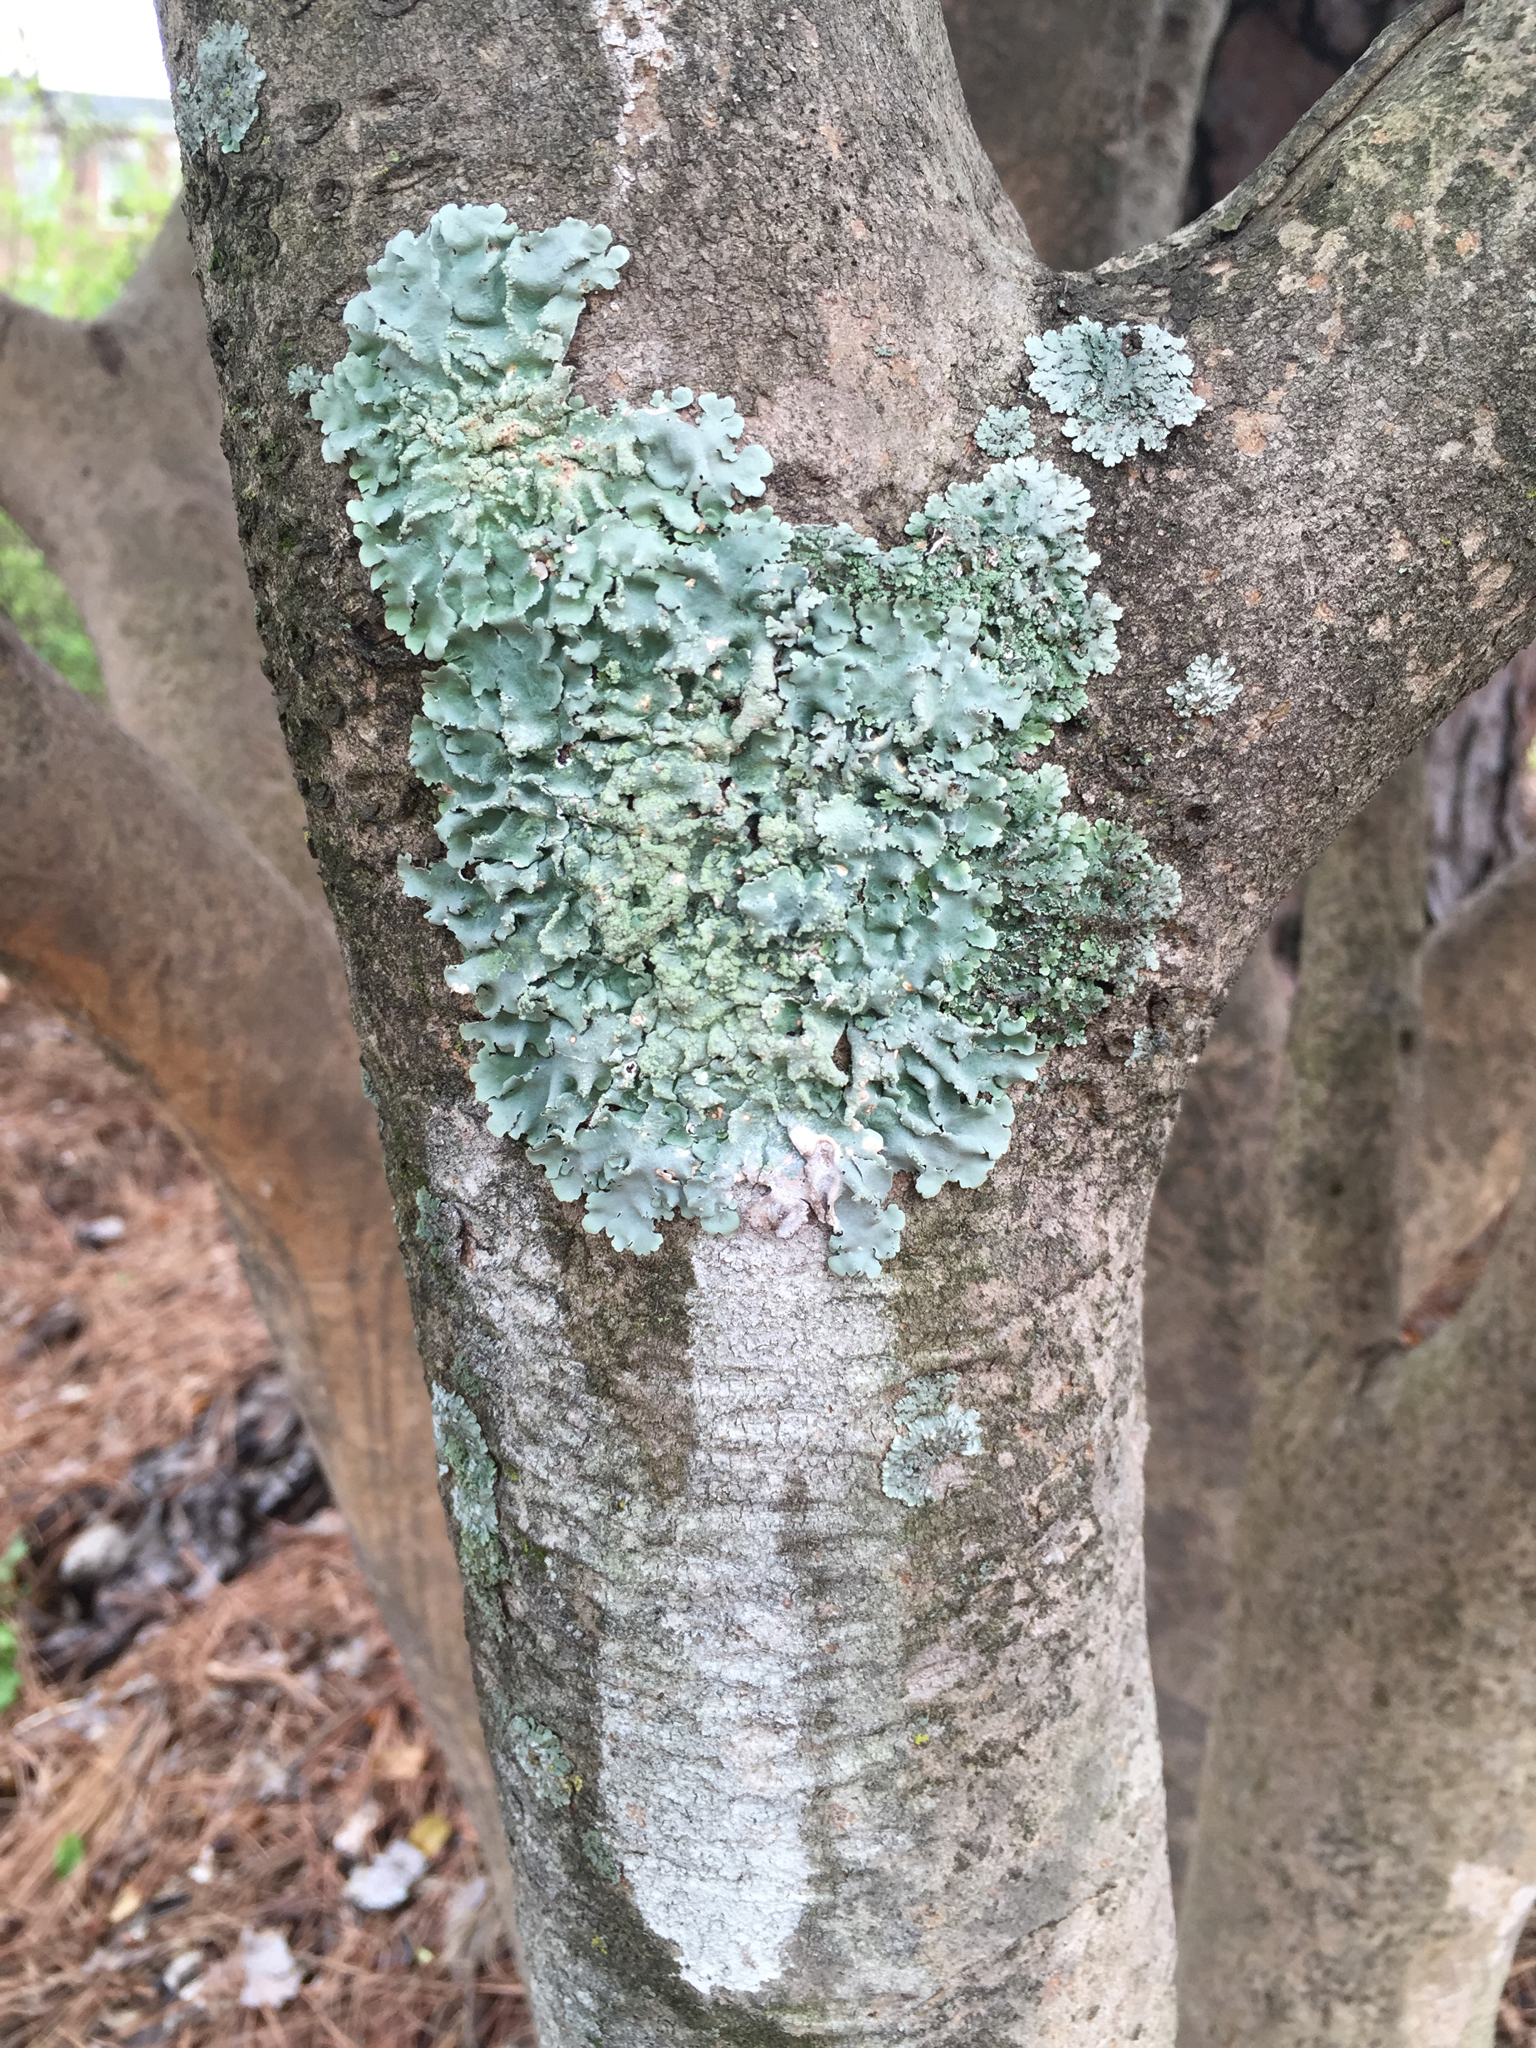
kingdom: Fungi
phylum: Ascomycota
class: Lecanoromycetes
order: Lecanorales
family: Parmeliaceae
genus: Canoparmelia
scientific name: Canoparmelia texana
